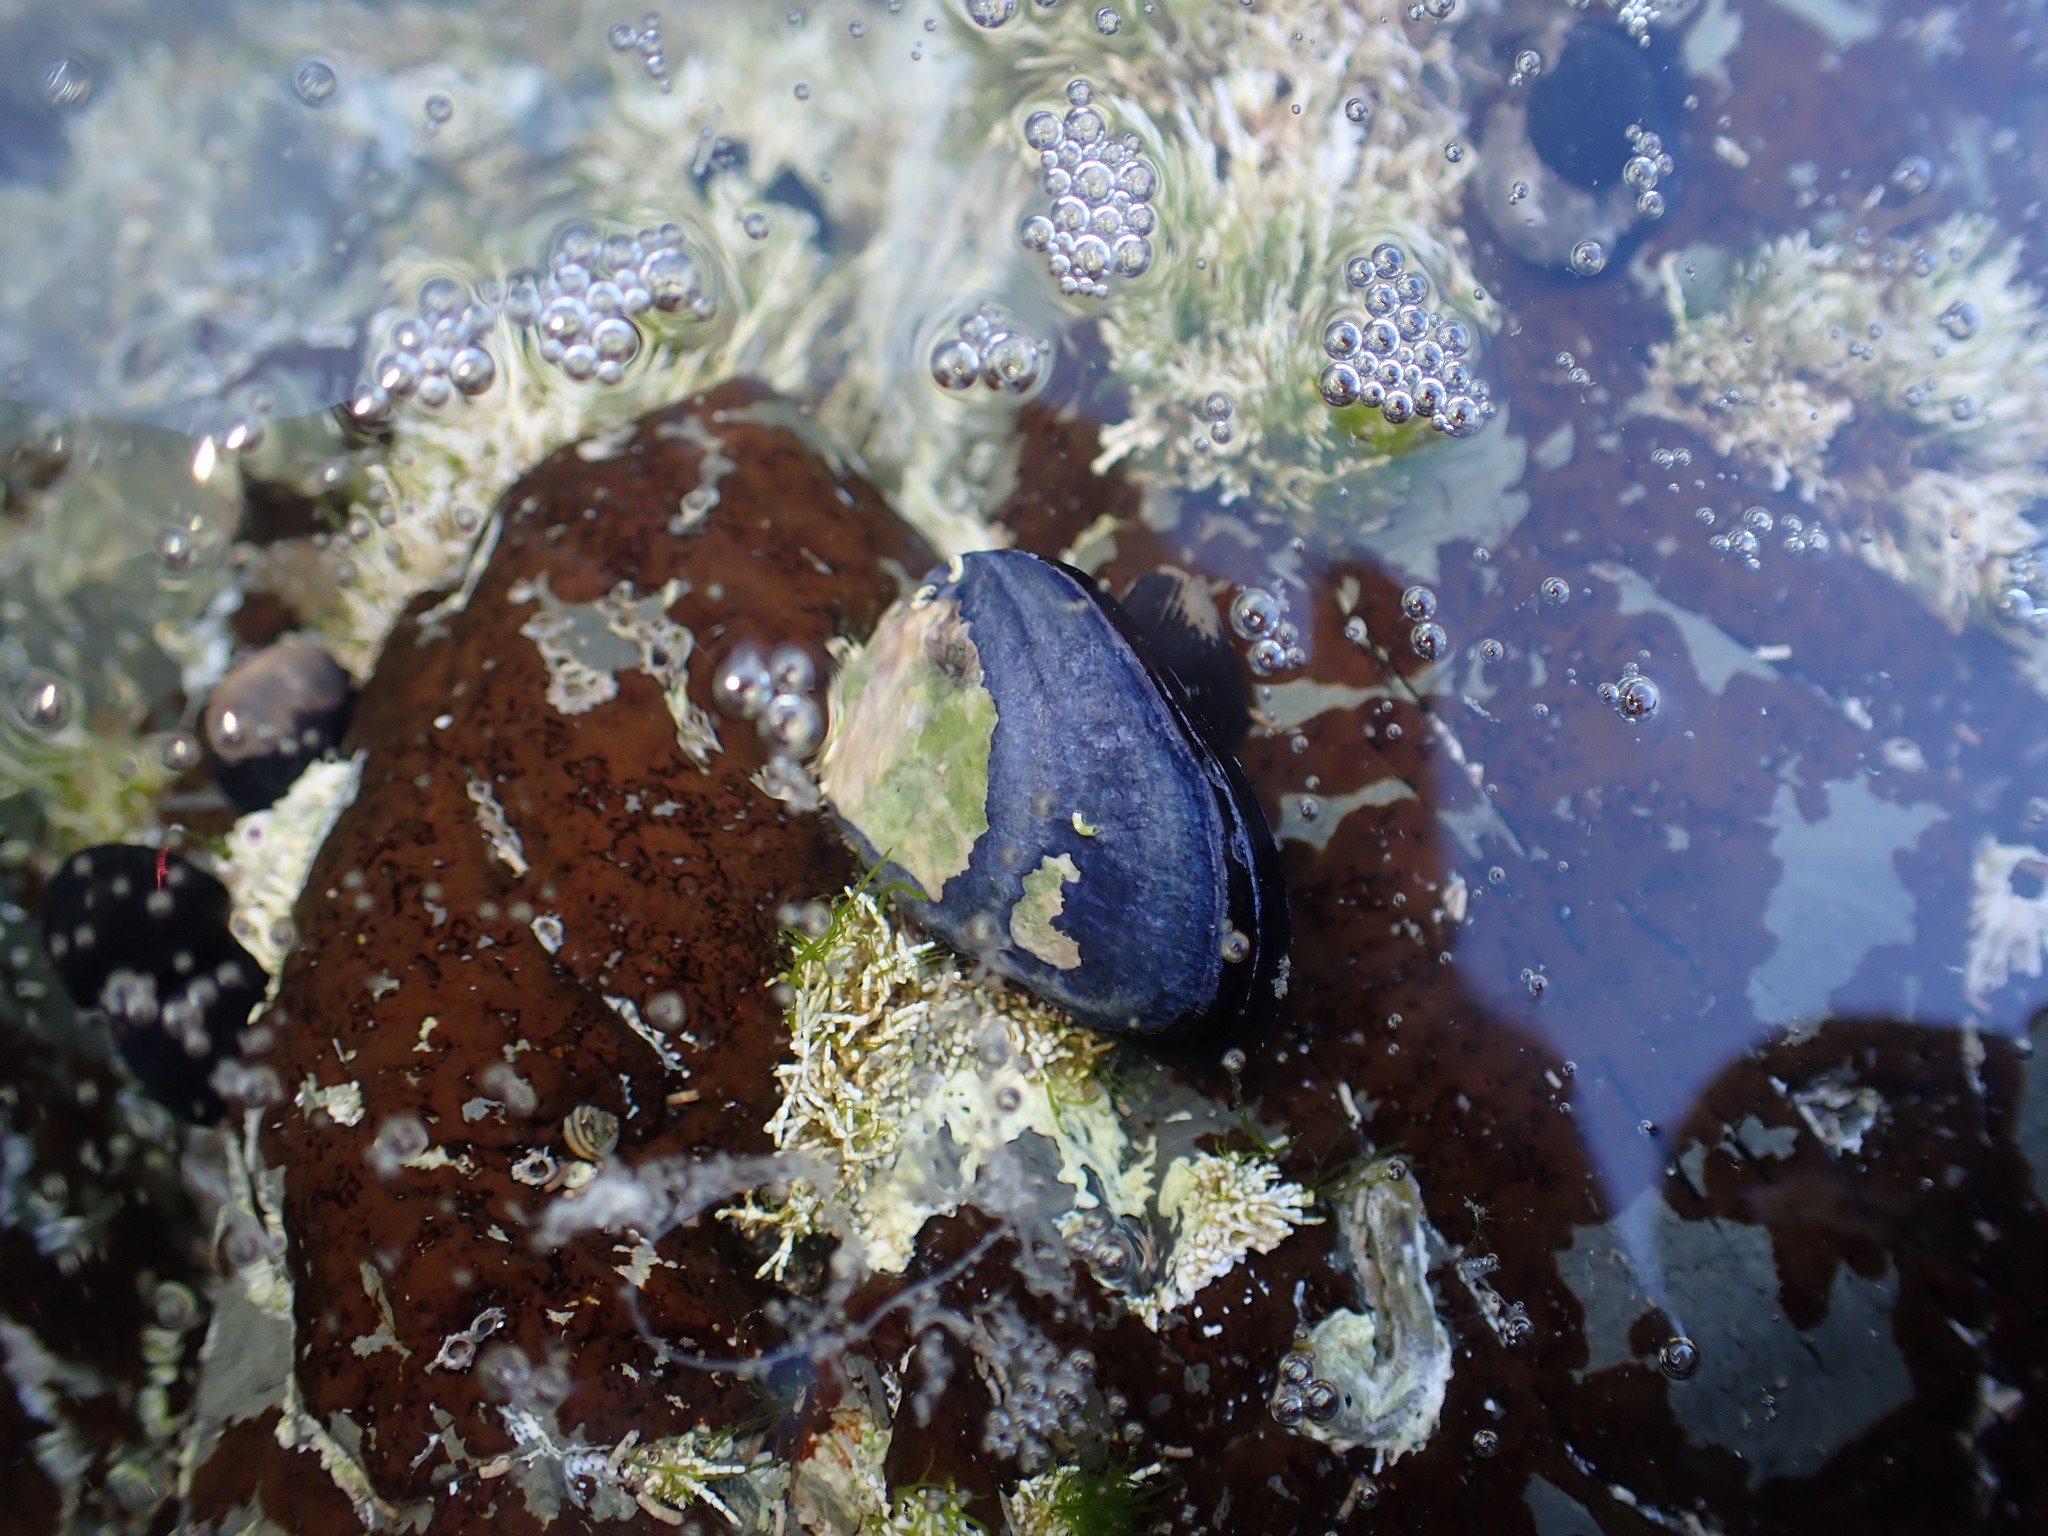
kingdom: Animalia
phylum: Mollusca
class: Bivalvia
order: Mytilida
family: Mytilidae
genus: Mytilus
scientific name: Mytilus planulatus
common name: Australian mussel
